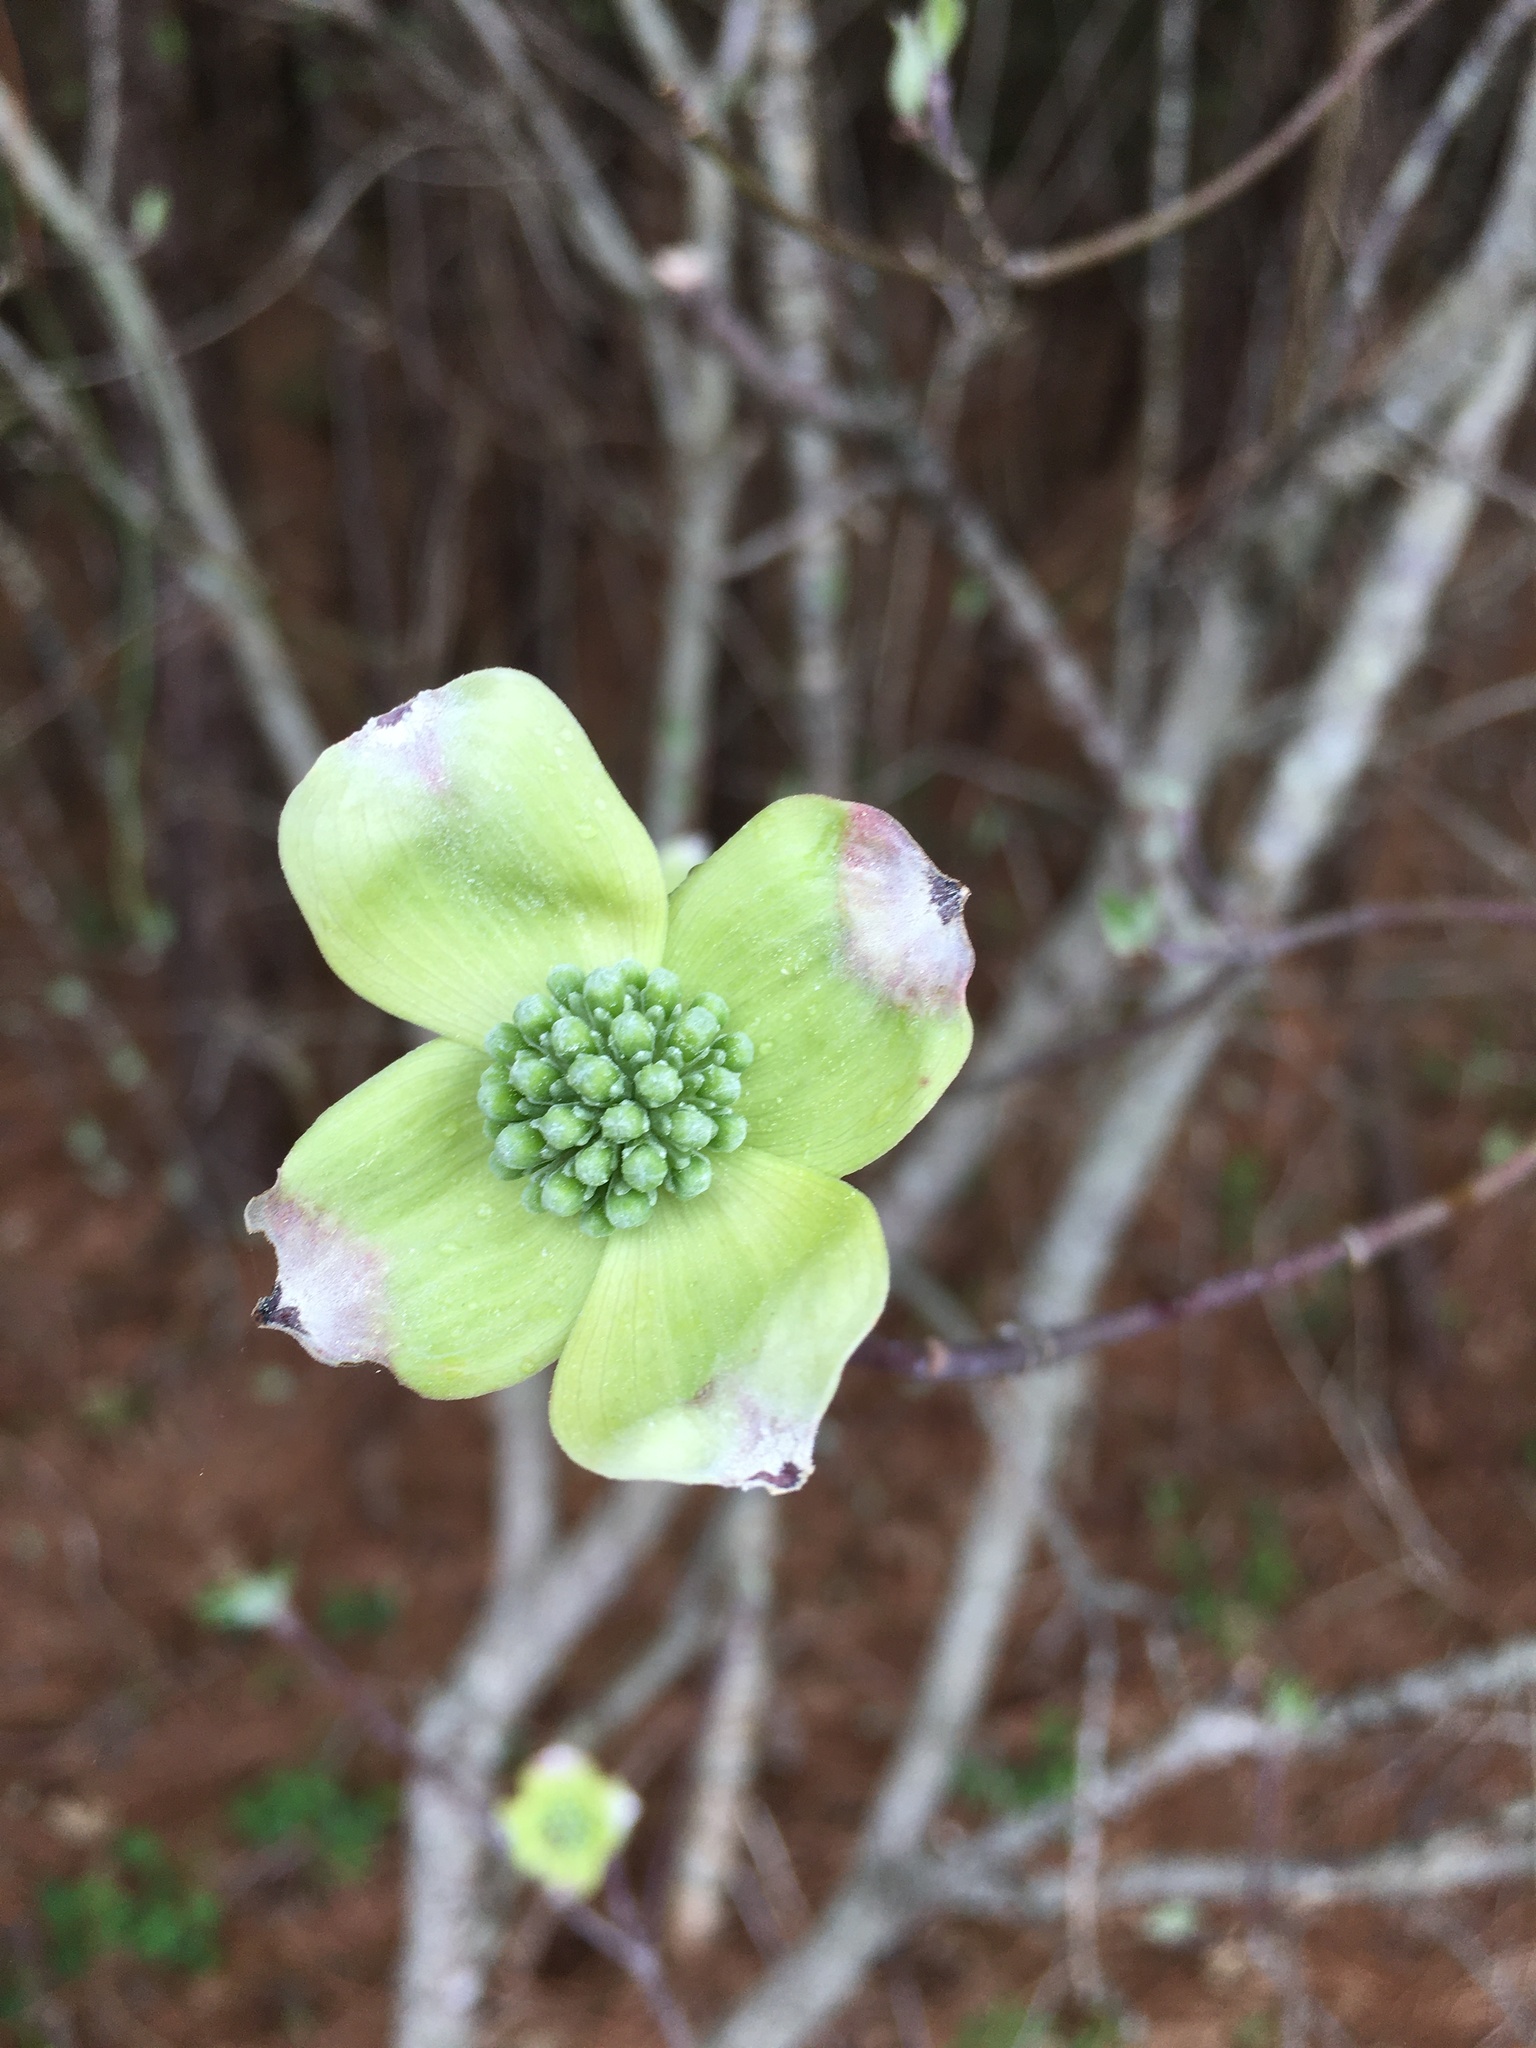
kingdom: Plantae
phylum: Tracheophyta
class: Magnoliopsida
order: Cornales
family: Cornaceae
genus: Cornus
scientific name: Cornus florida
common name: Flowering dogwood
